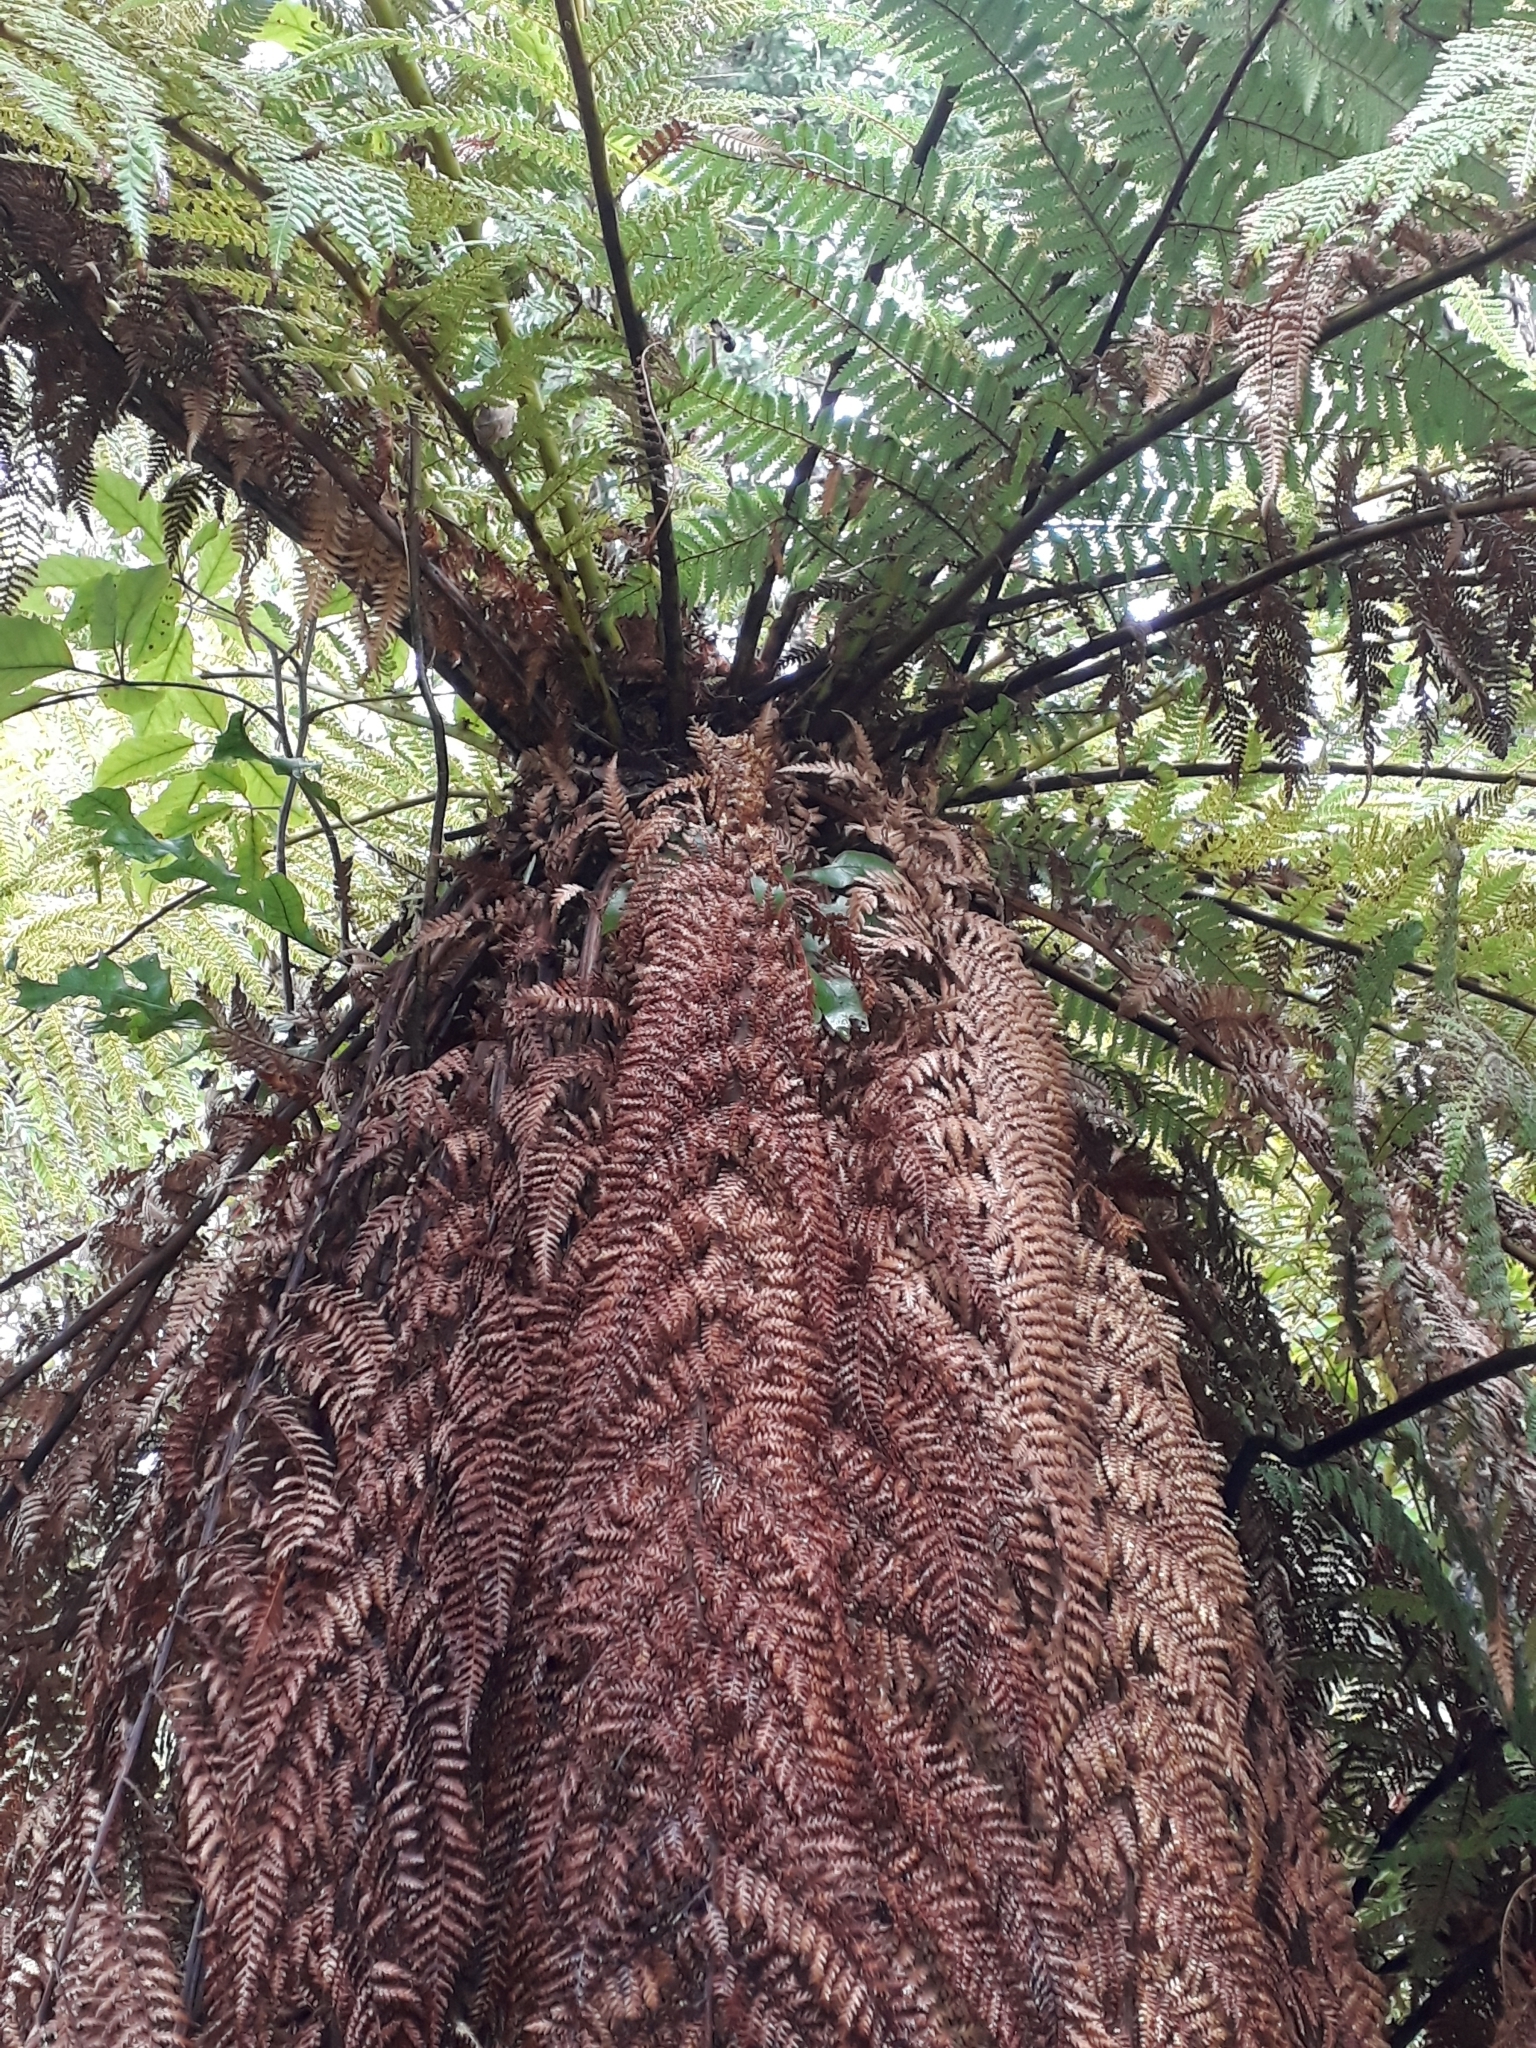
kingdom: Plantae
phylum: Tracheophyta
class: Polypodiopsida
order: Cyatheales
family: Dicksoniaceae
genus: Dicksonia
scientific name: Dicksonia fibrosa
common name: Golden tree fern
